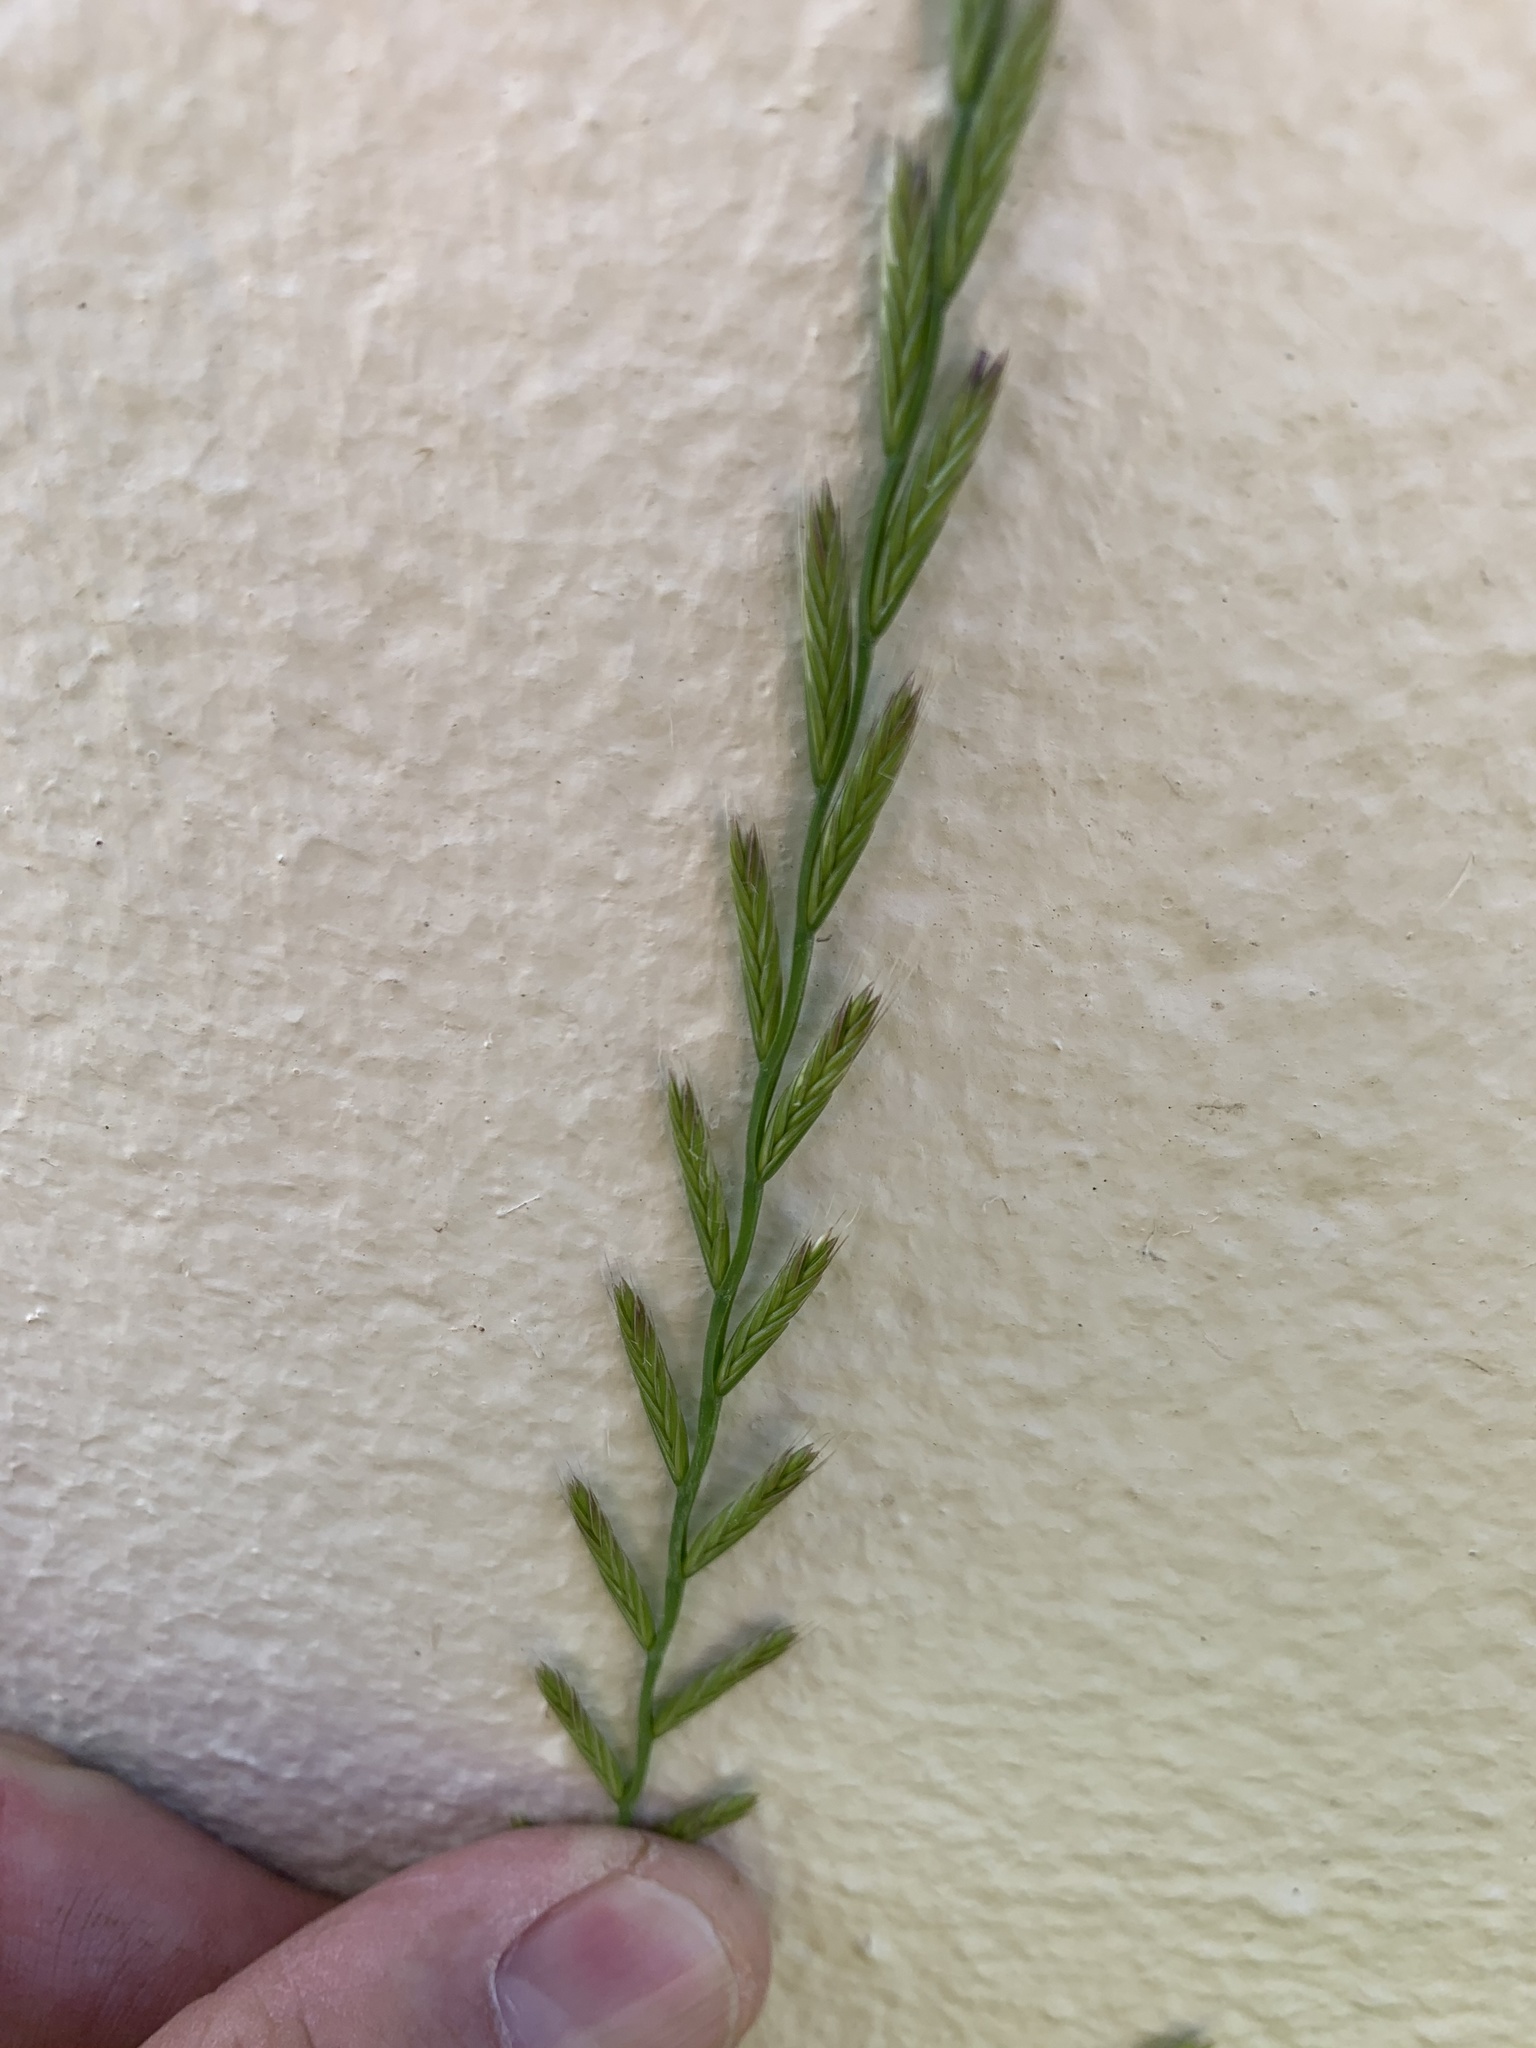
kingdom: Plantae
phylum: Tracheophyta
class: Liliopsida
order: Poales
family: Poaceae
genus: Lolium
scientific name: Lolium multiflorum
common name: Annual ryegrass
